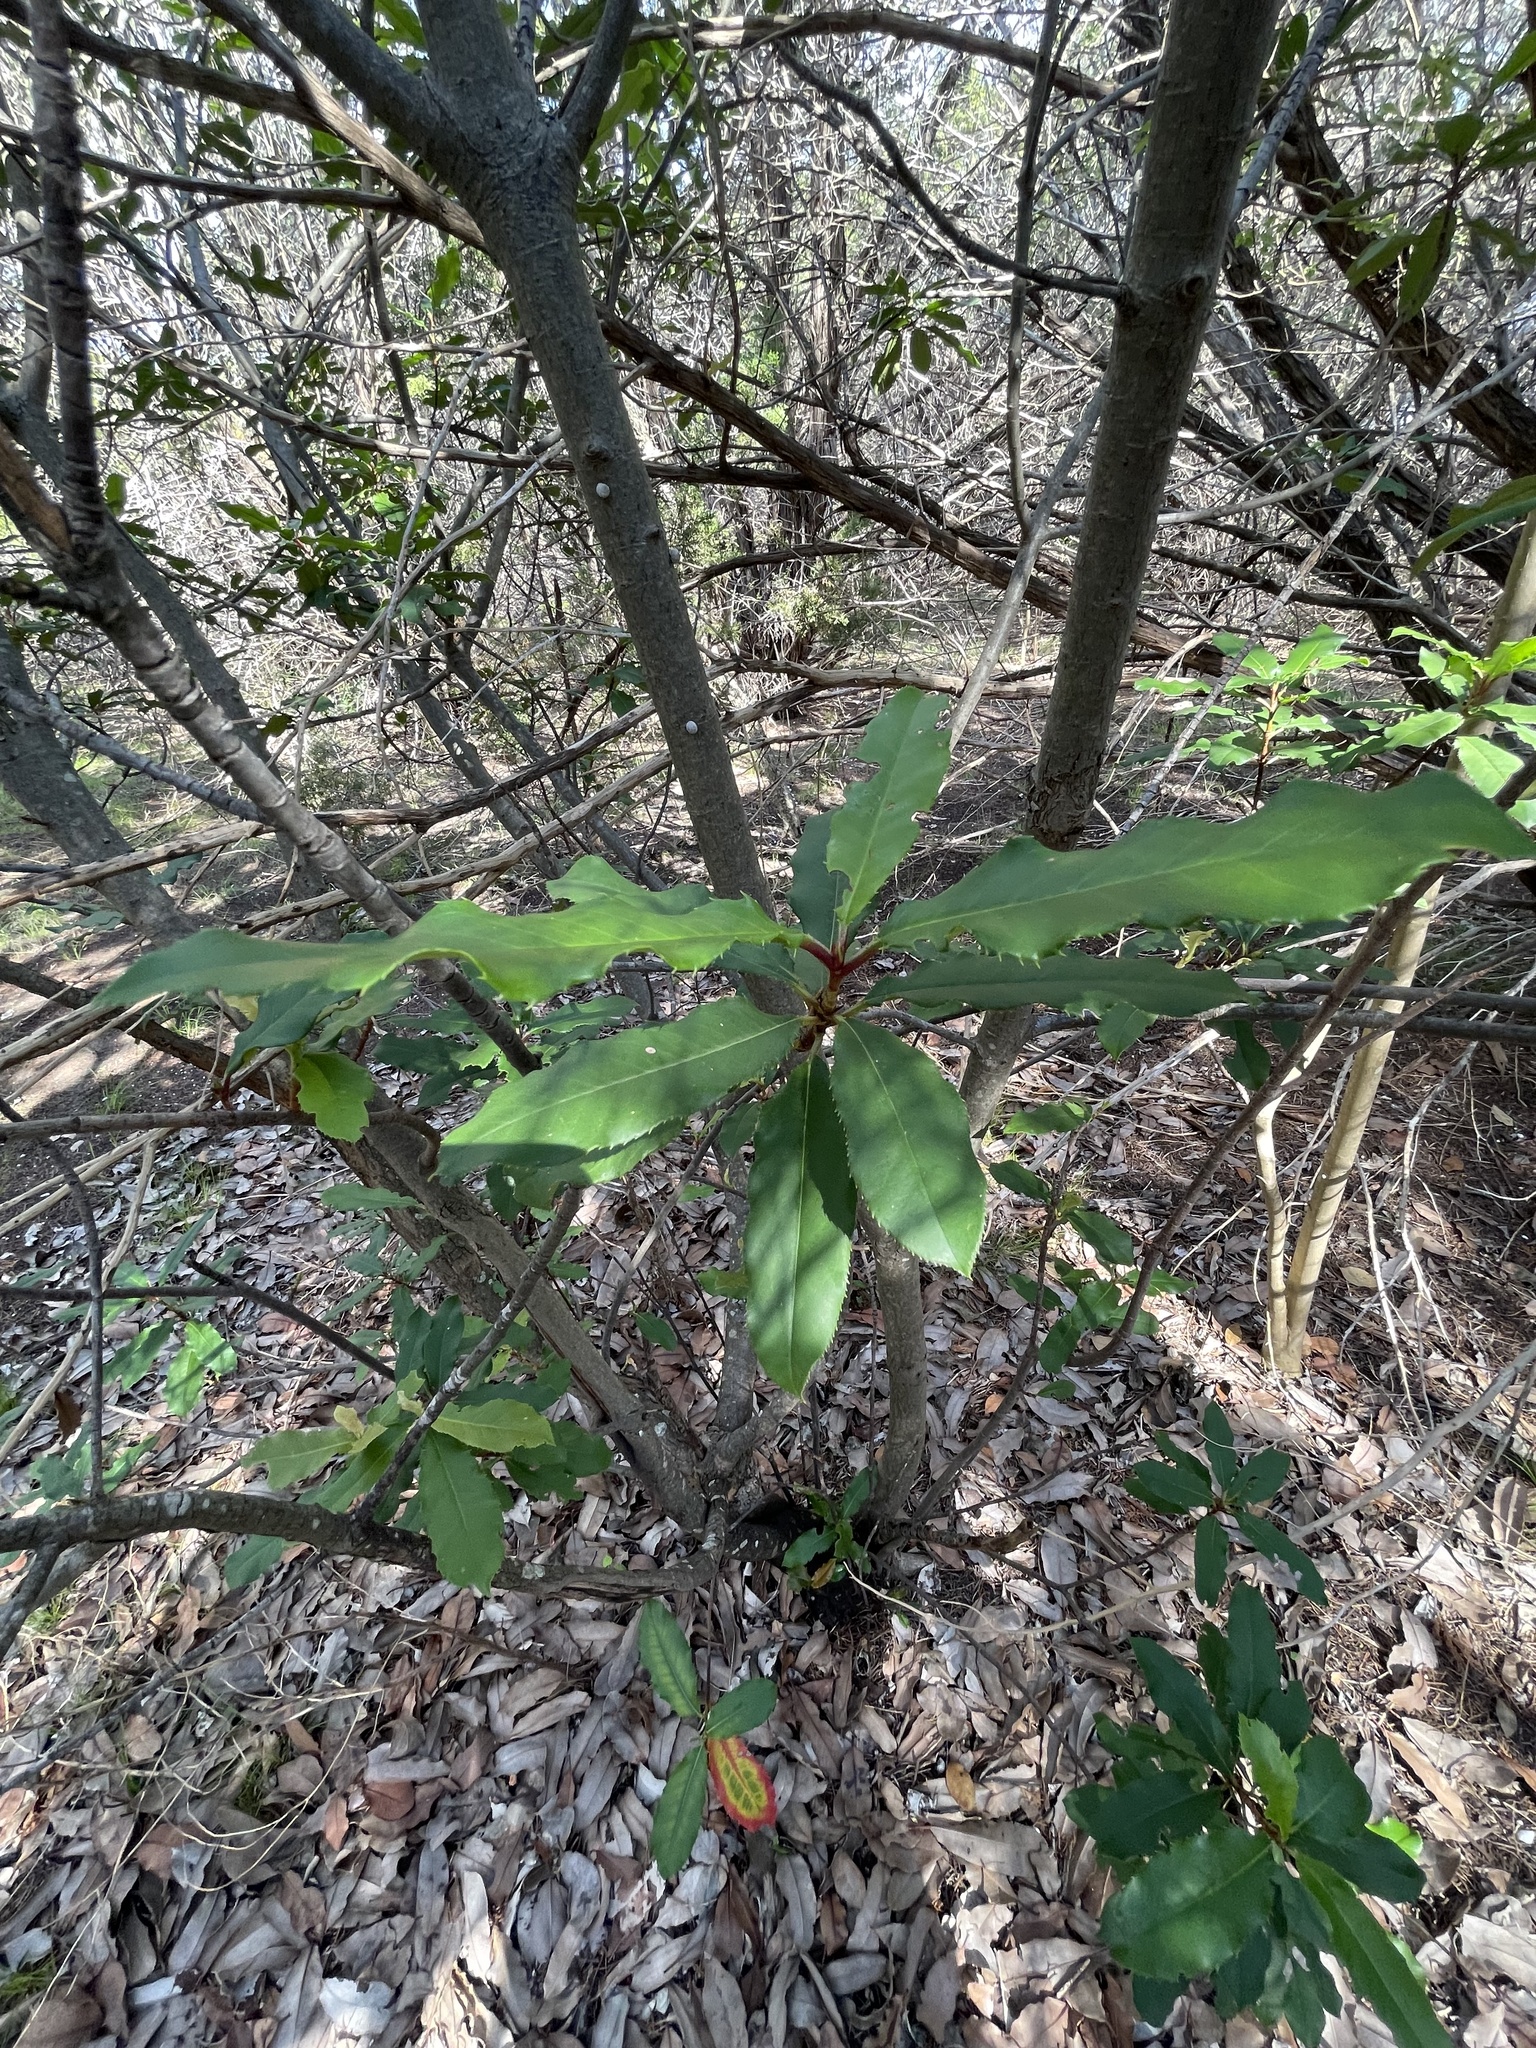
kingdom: Plantae
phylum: Tracheophyta
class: Magnoliopsida
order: Rosales
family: Rosaceae
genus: Photinia
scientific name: Photinia serratifolia
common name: Taiwanese photinia
